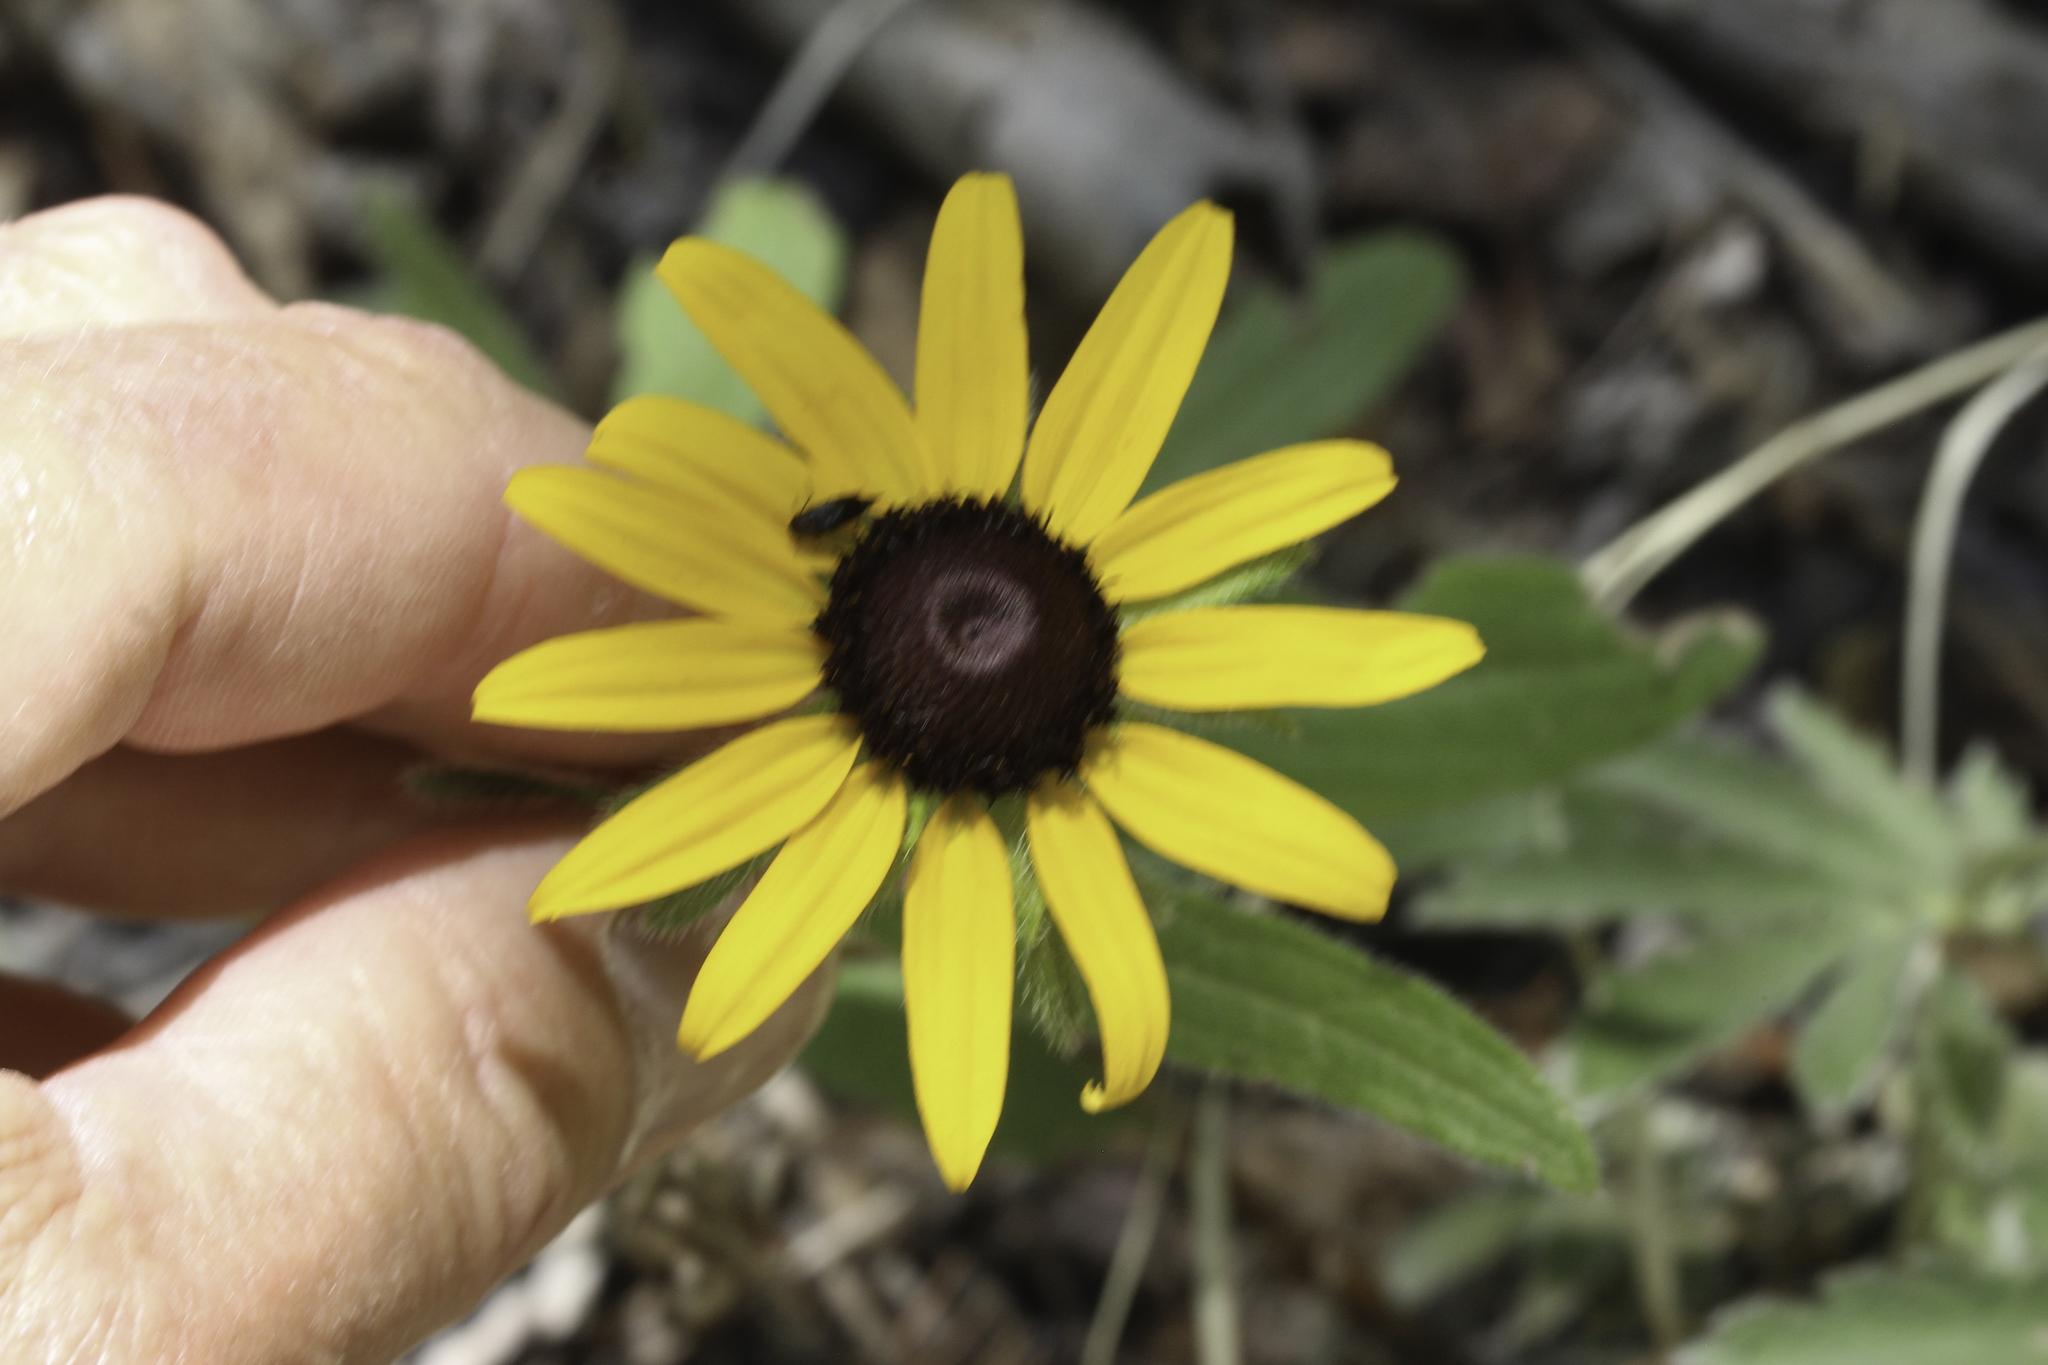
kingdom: Plantae
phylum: Tracheophyta
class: Magnoliopsida
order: Asterales
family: Asteraceae
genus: Rudbeckia
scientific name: Rudbeckia hirta
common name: Black-eyed-susan
